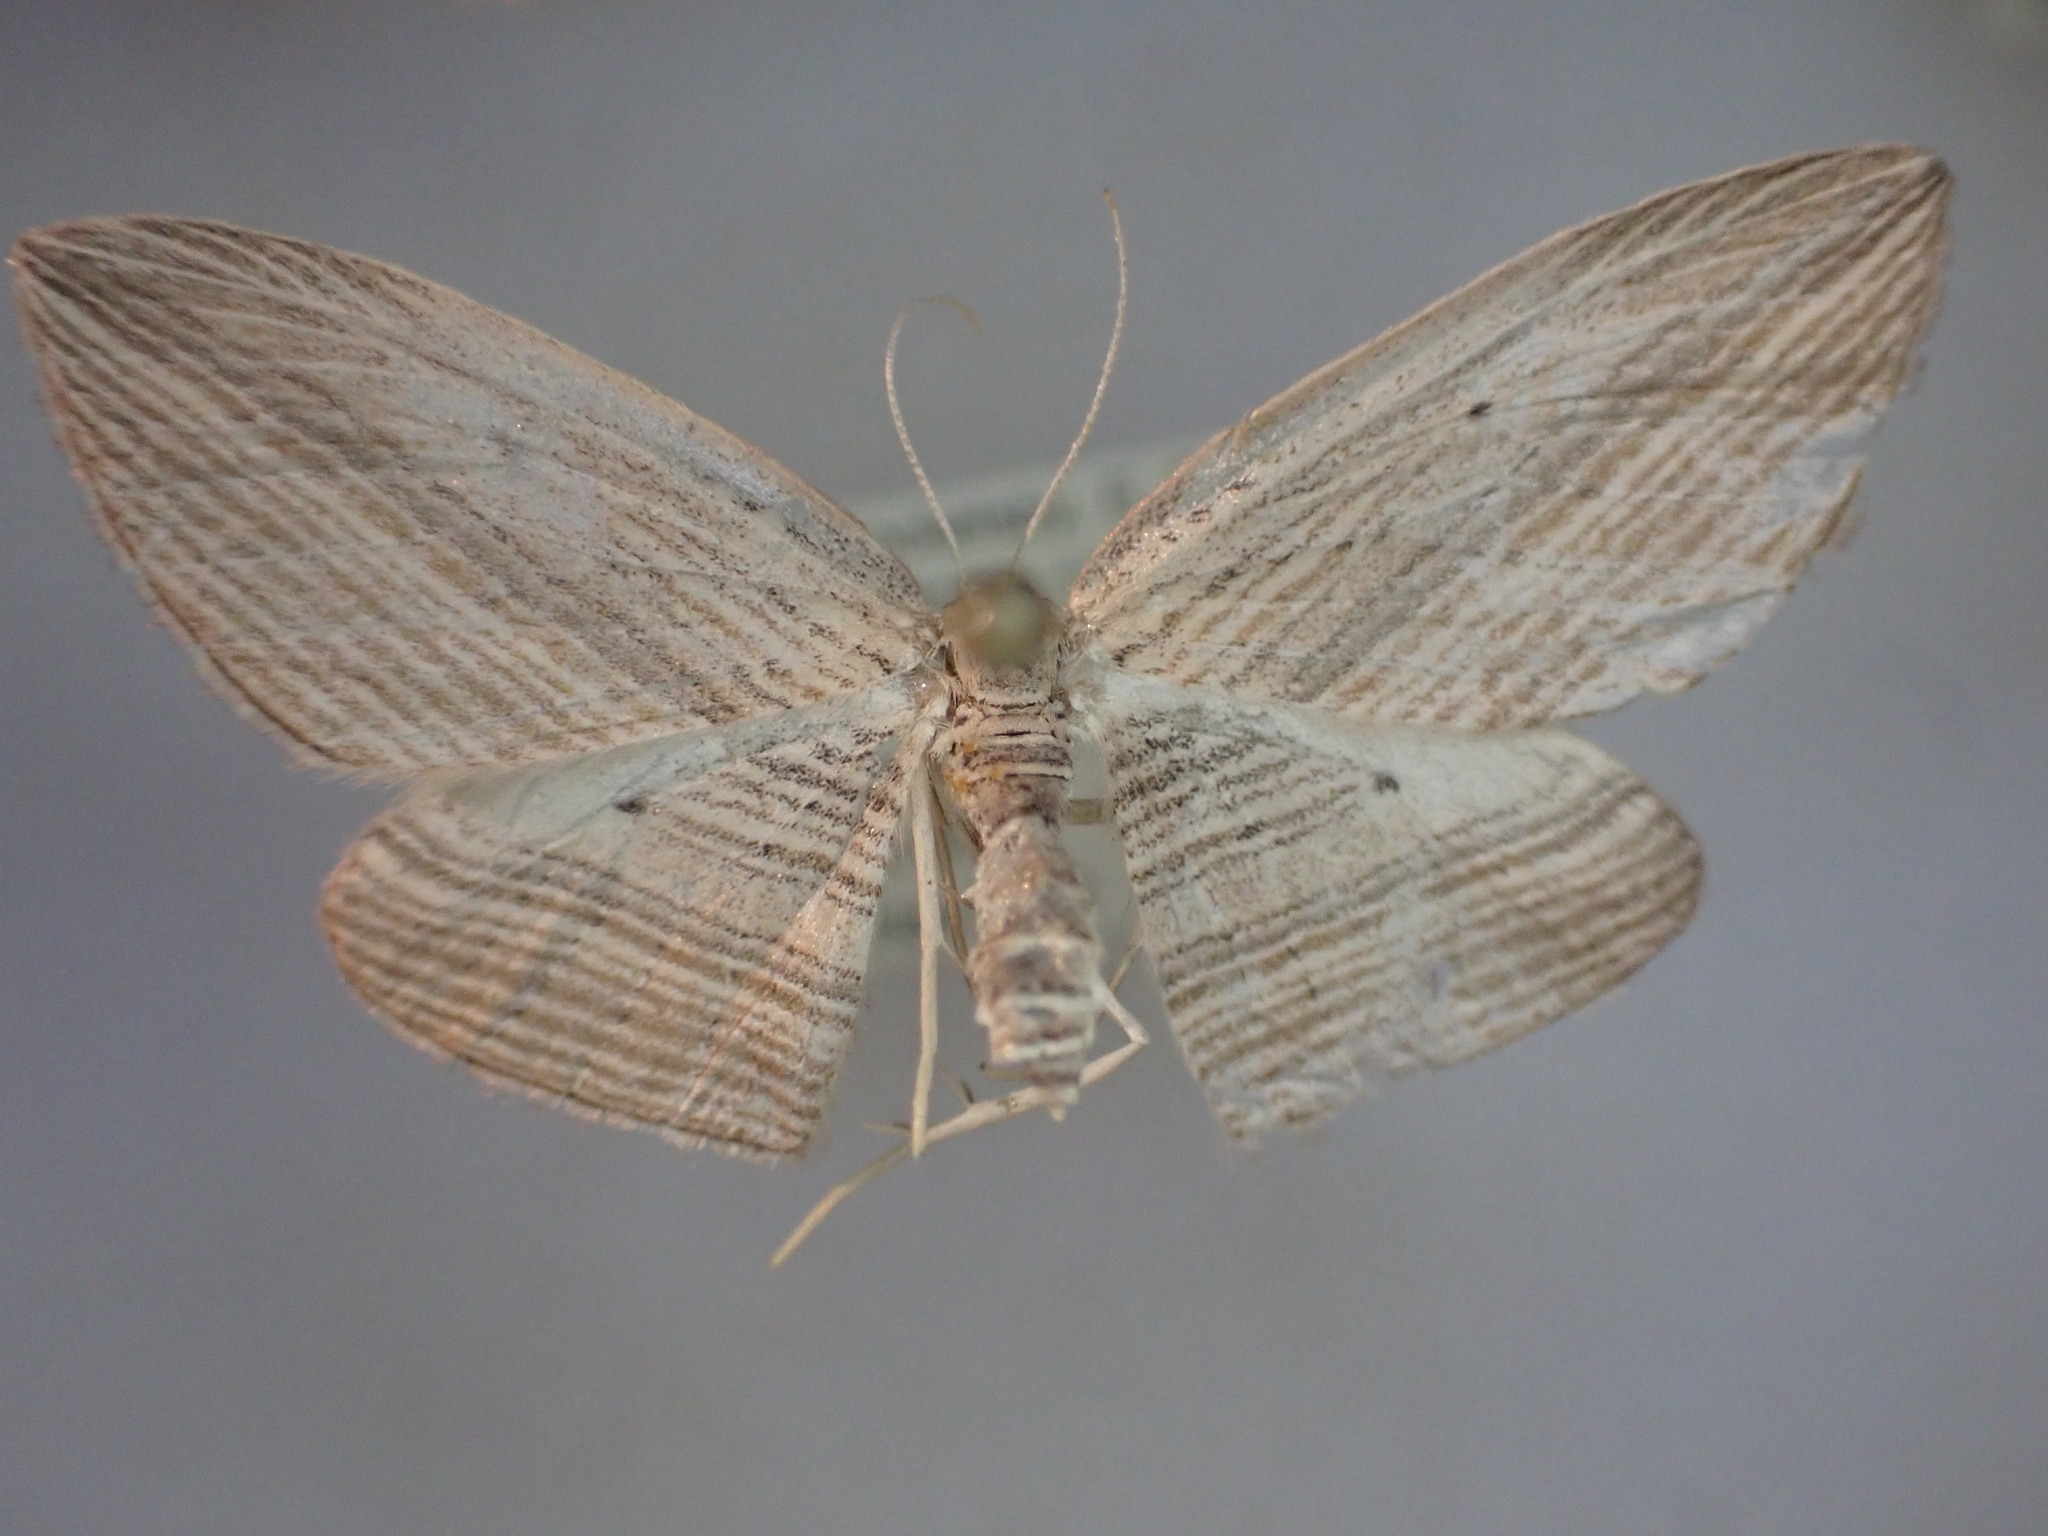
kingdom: Animalia
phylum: Arthropoda
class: Insecta
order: Lepidoptera
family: Geometridae
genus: Epiphryne
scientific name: Epiphryne verriculata
